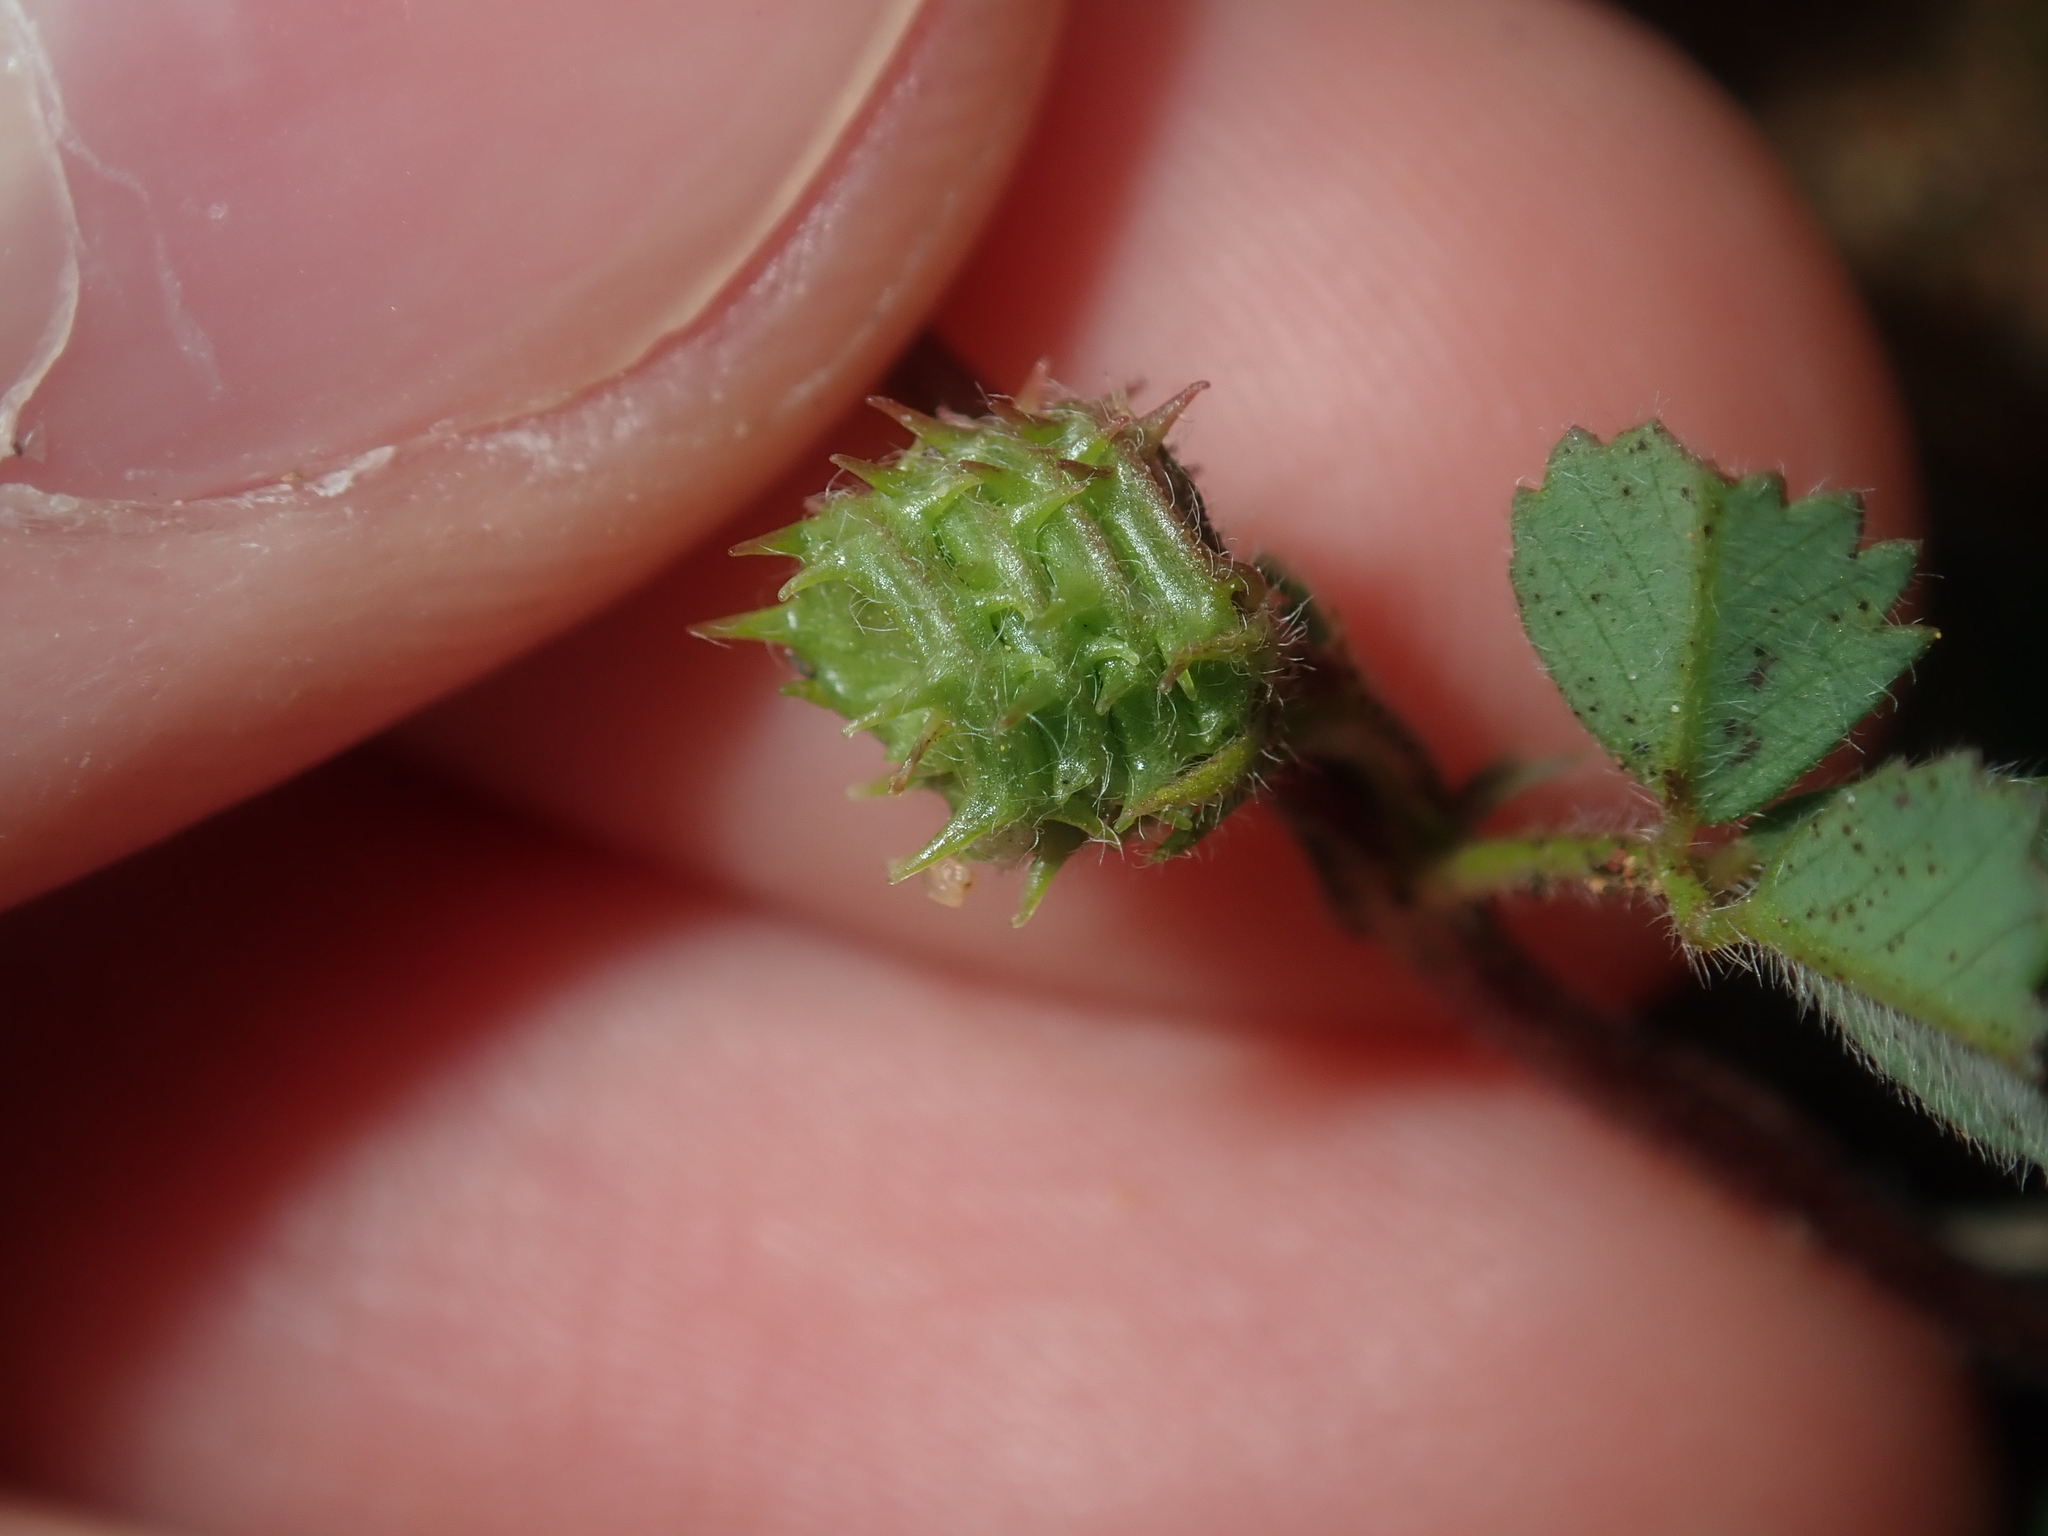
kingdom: Plantae
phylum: Tracheophyta
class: Magnoliopsida
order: Fabales
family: Fabaceae
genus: Medicago
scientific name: Medicago truncatula
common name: Strong-spined medick
